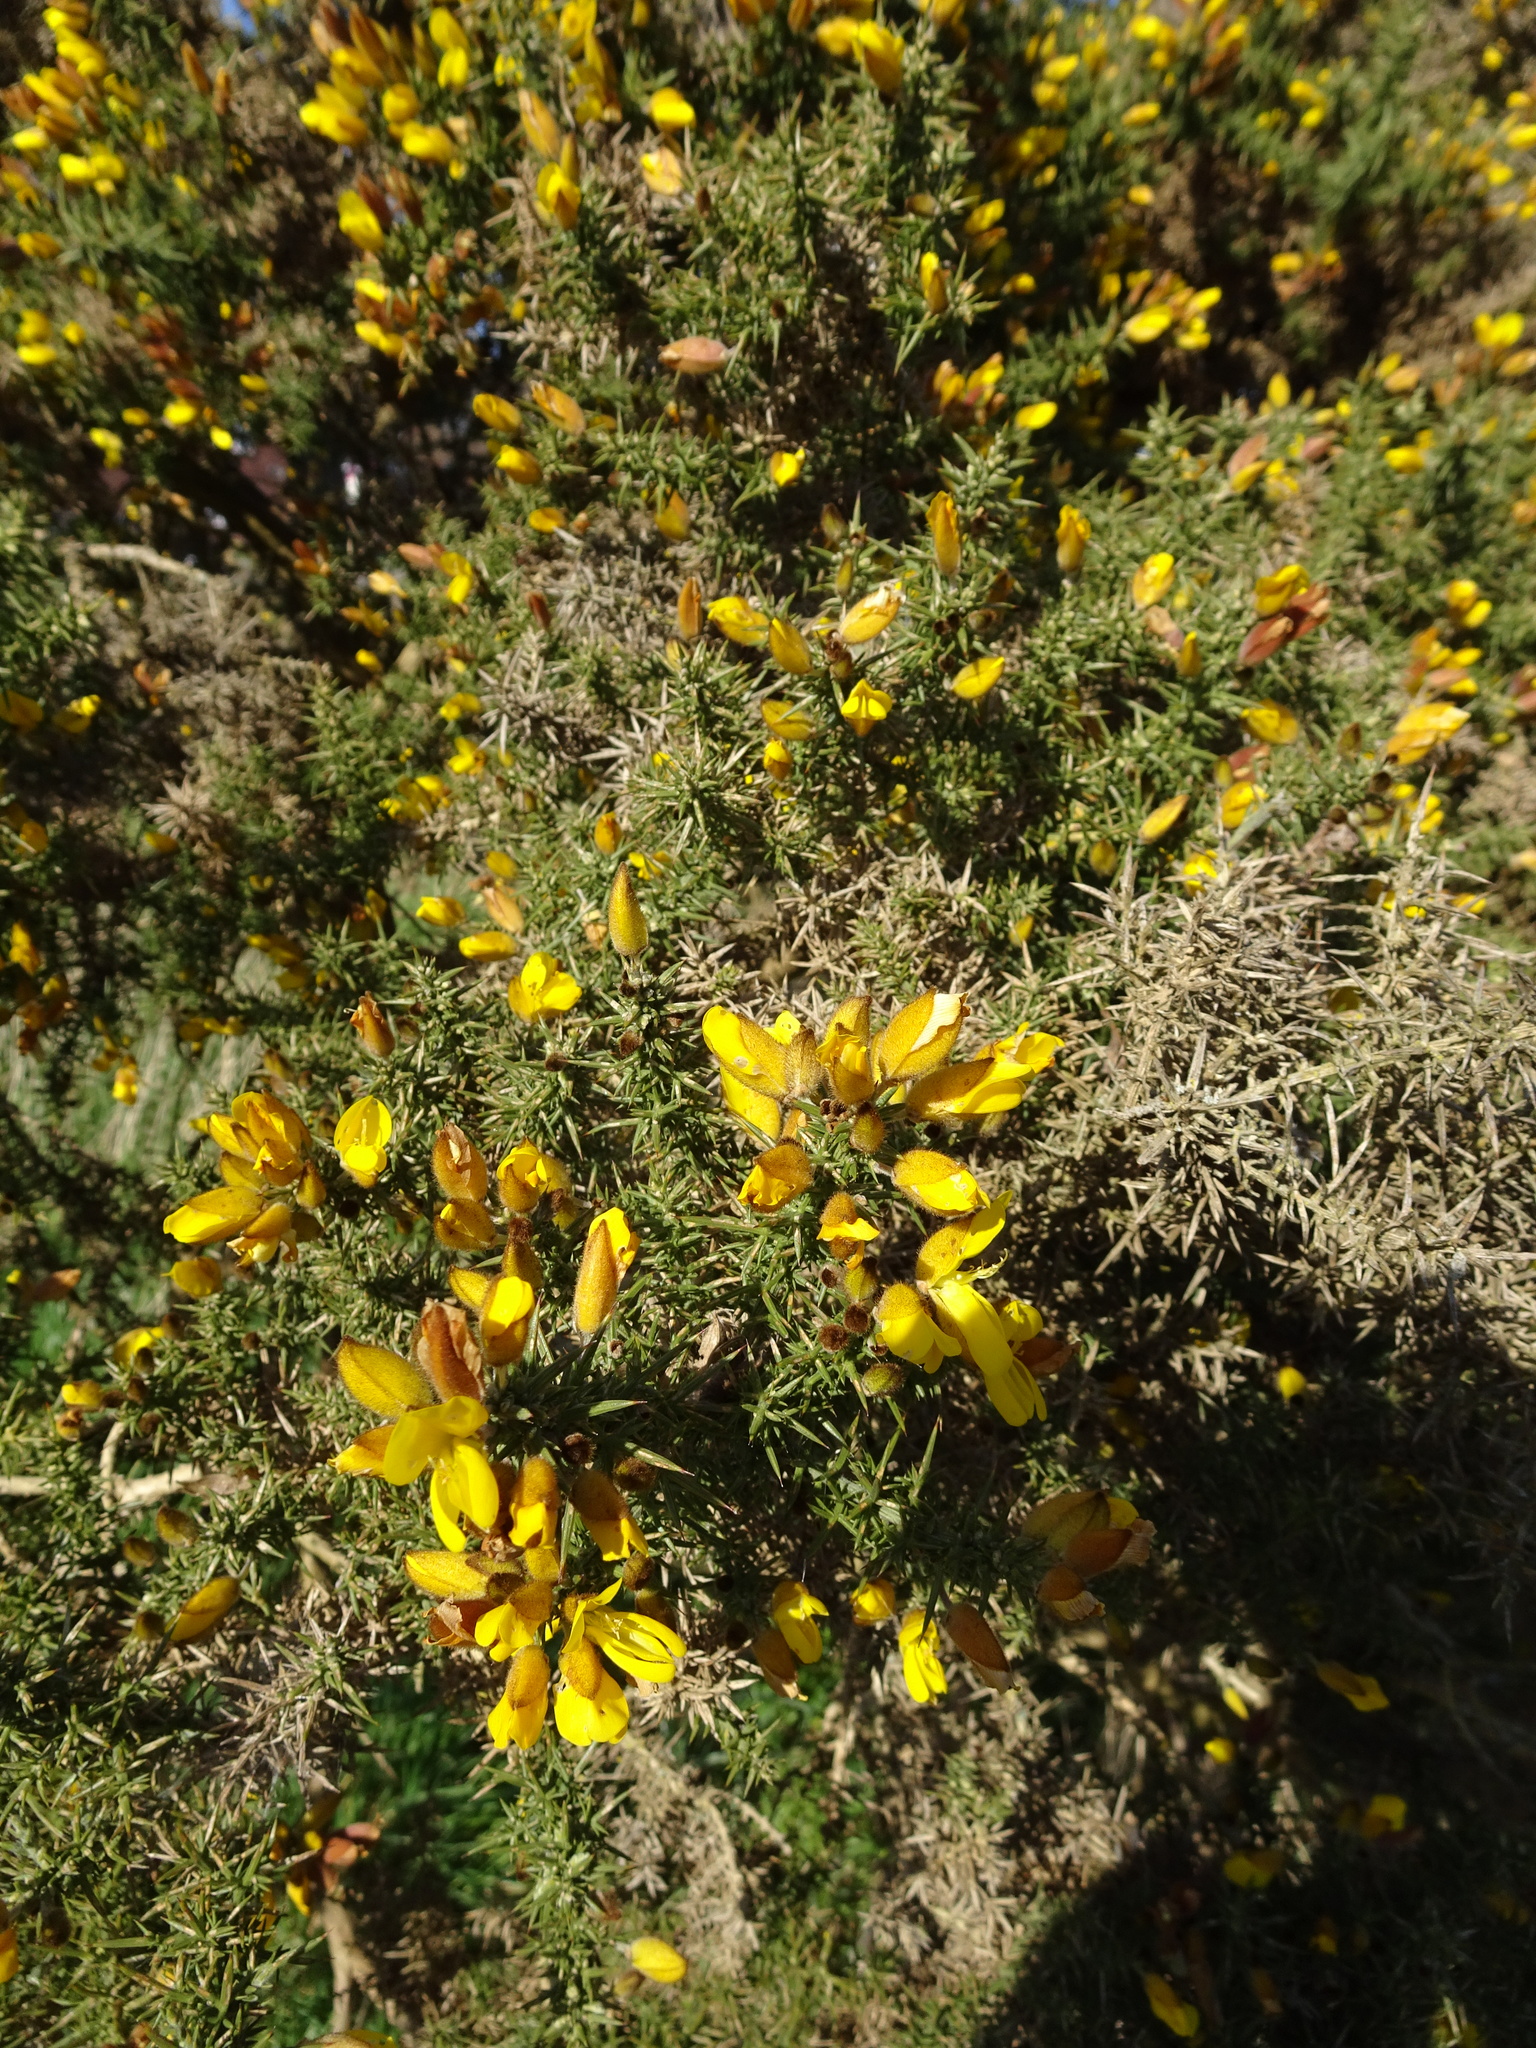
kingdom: Plantae
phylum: Tracheophyta
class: Magnoliopsida
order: Fabales
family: Fabaceae
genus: Ulex
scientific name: Ulex europaeus
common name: Common gorse
